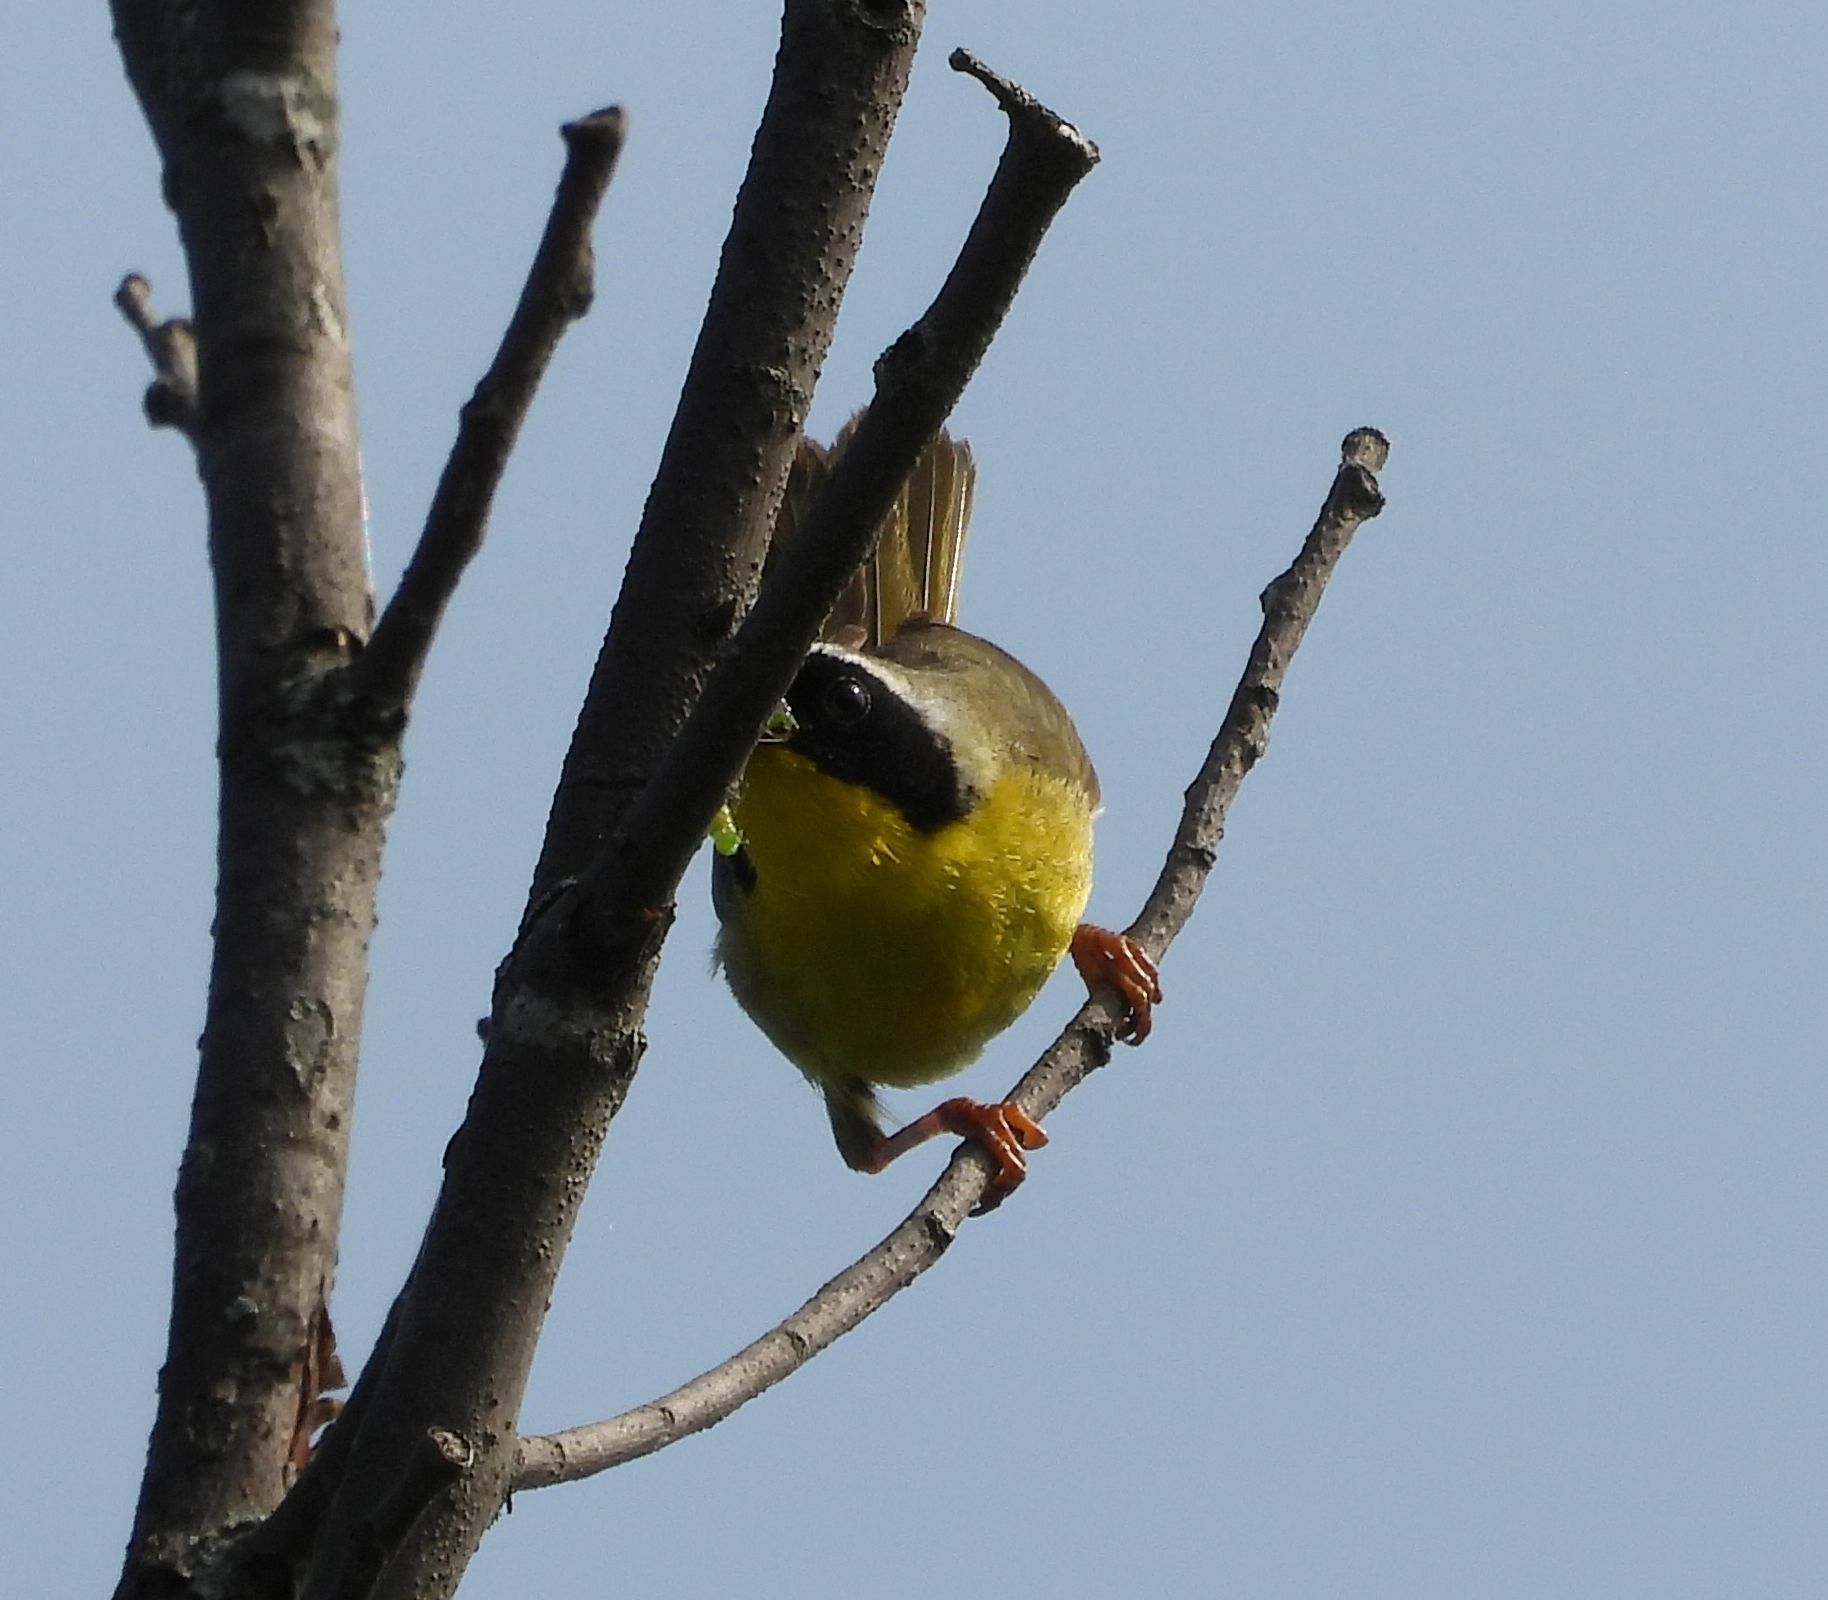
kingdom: Animalia
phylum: Chordata
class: Aves
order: Passeriformes
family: Parulidae
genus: Geothlypis
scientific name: Geothlypis trichas
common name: Common yellowthroat
